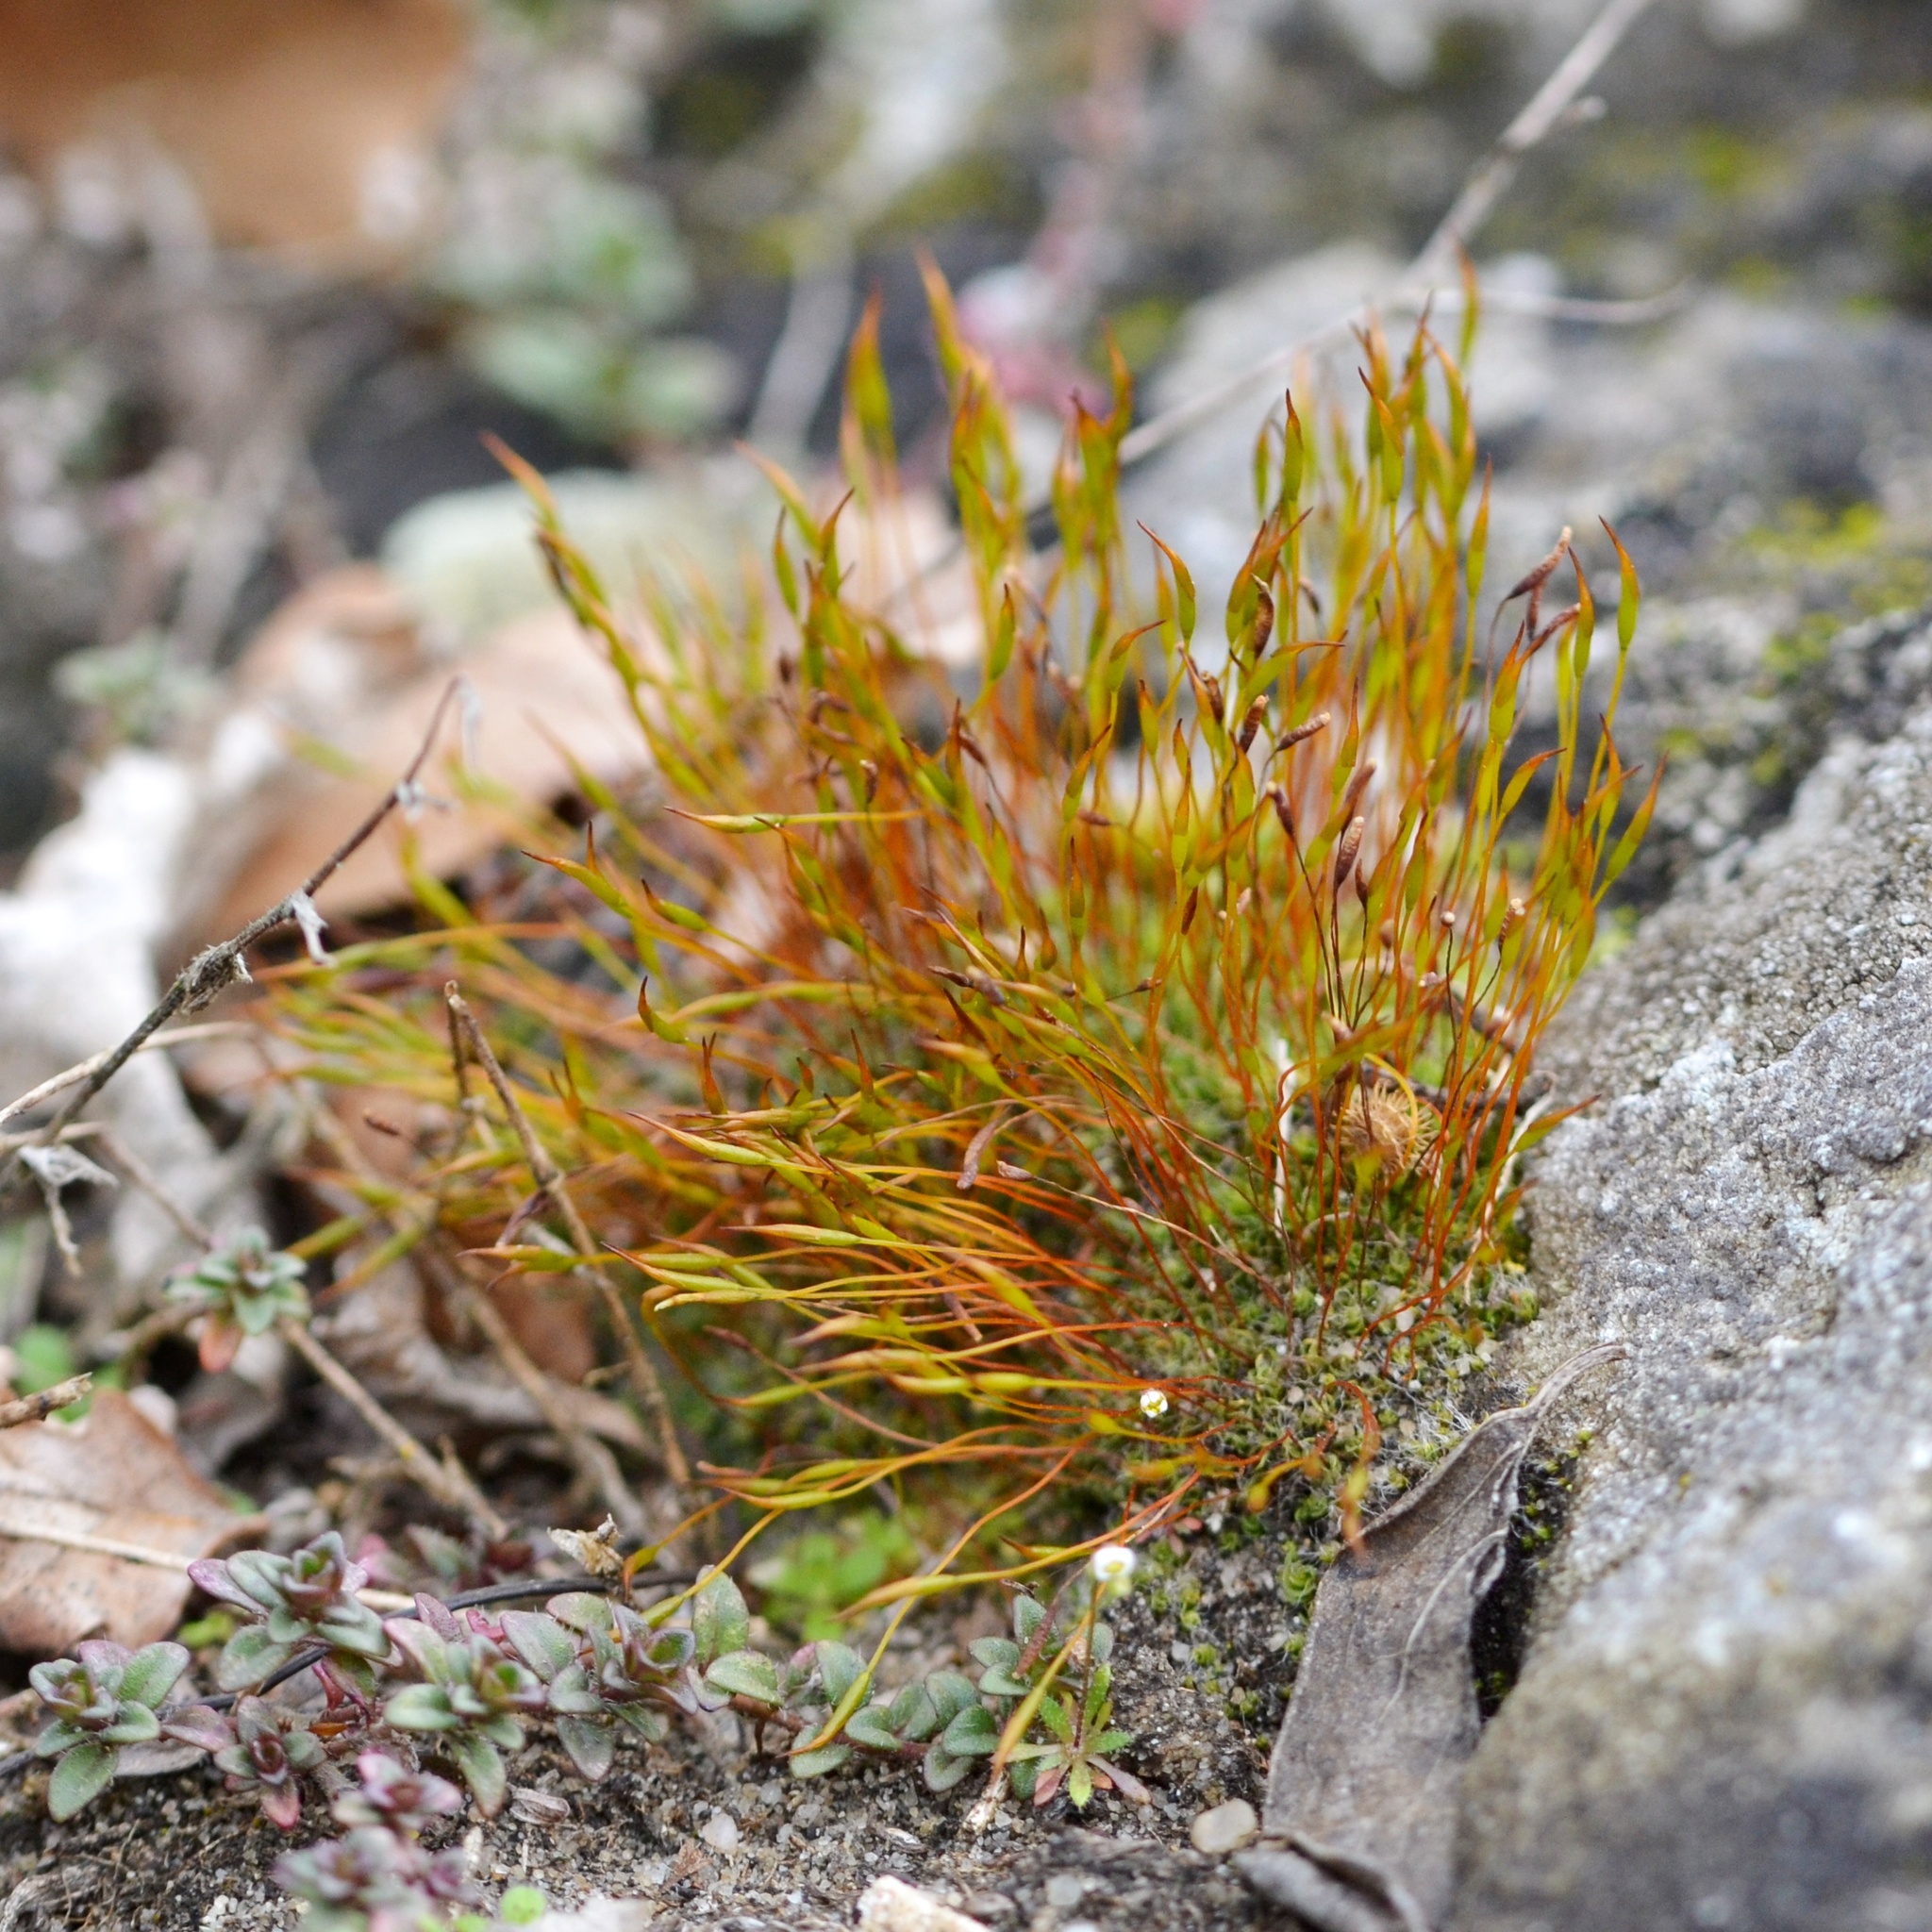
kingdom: Plantae
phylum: Bryophyta
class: Bryopsida
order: Pottiales
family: Pottiaceae
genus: Tortula
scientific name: Tortula muralis
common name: Wall screw-moss
